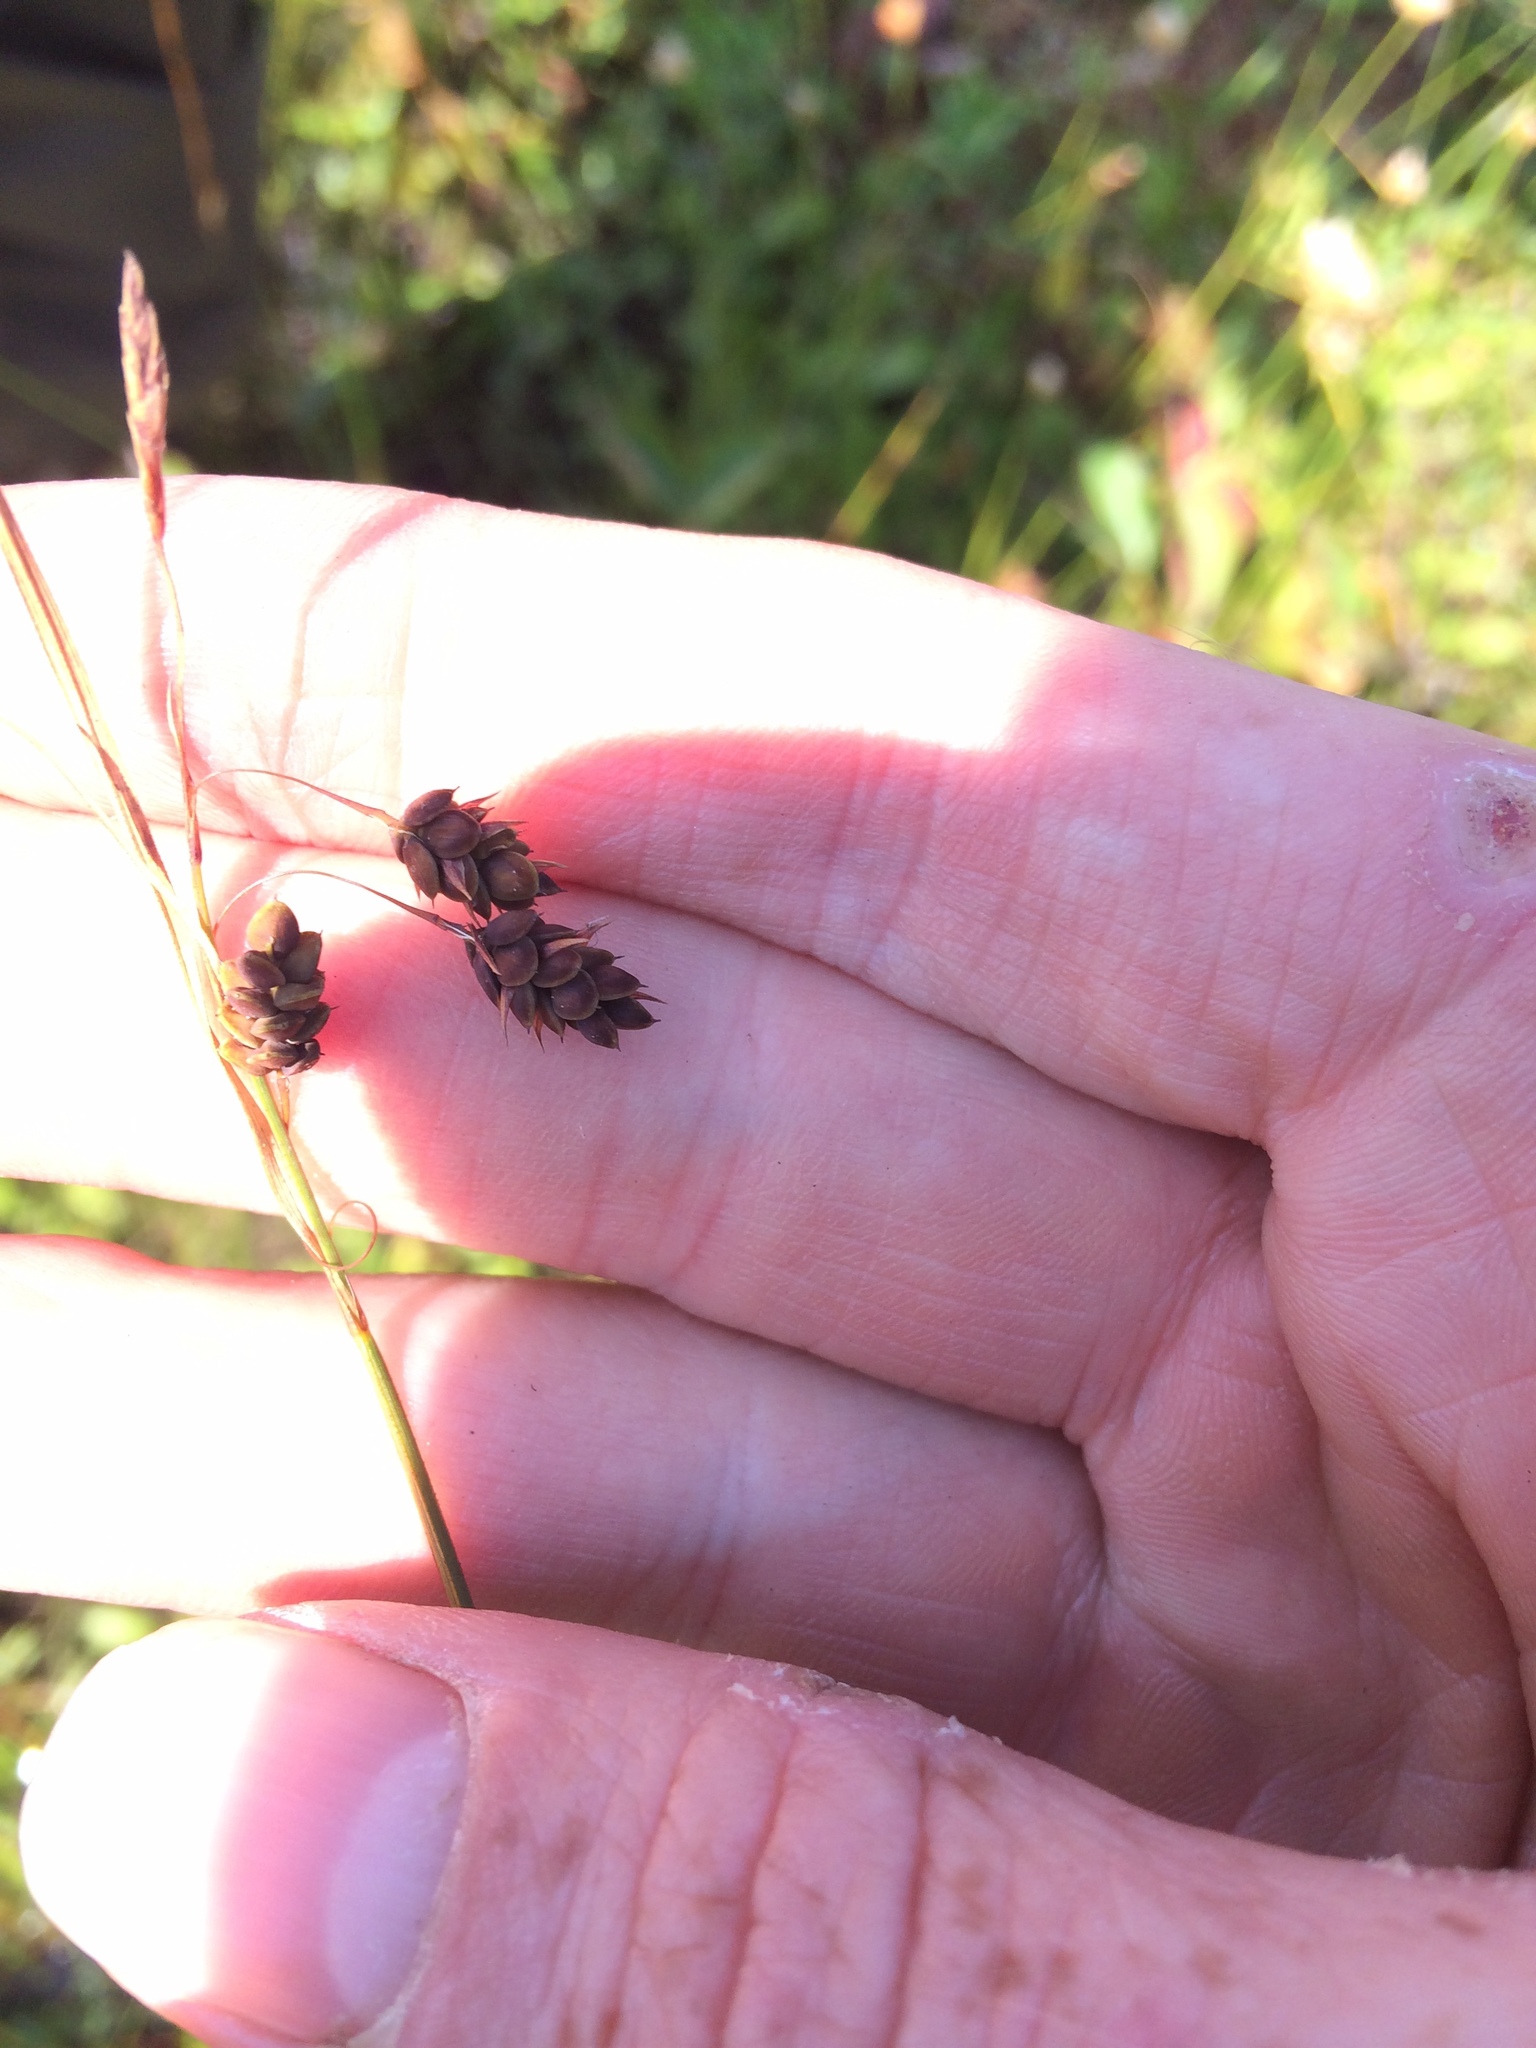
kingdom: Plantae
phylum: Tracheophyta
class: Liliopsida
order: Poales
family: Cyperaceae
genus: Carex
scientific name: Carex magellanica
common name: Bog sedge
